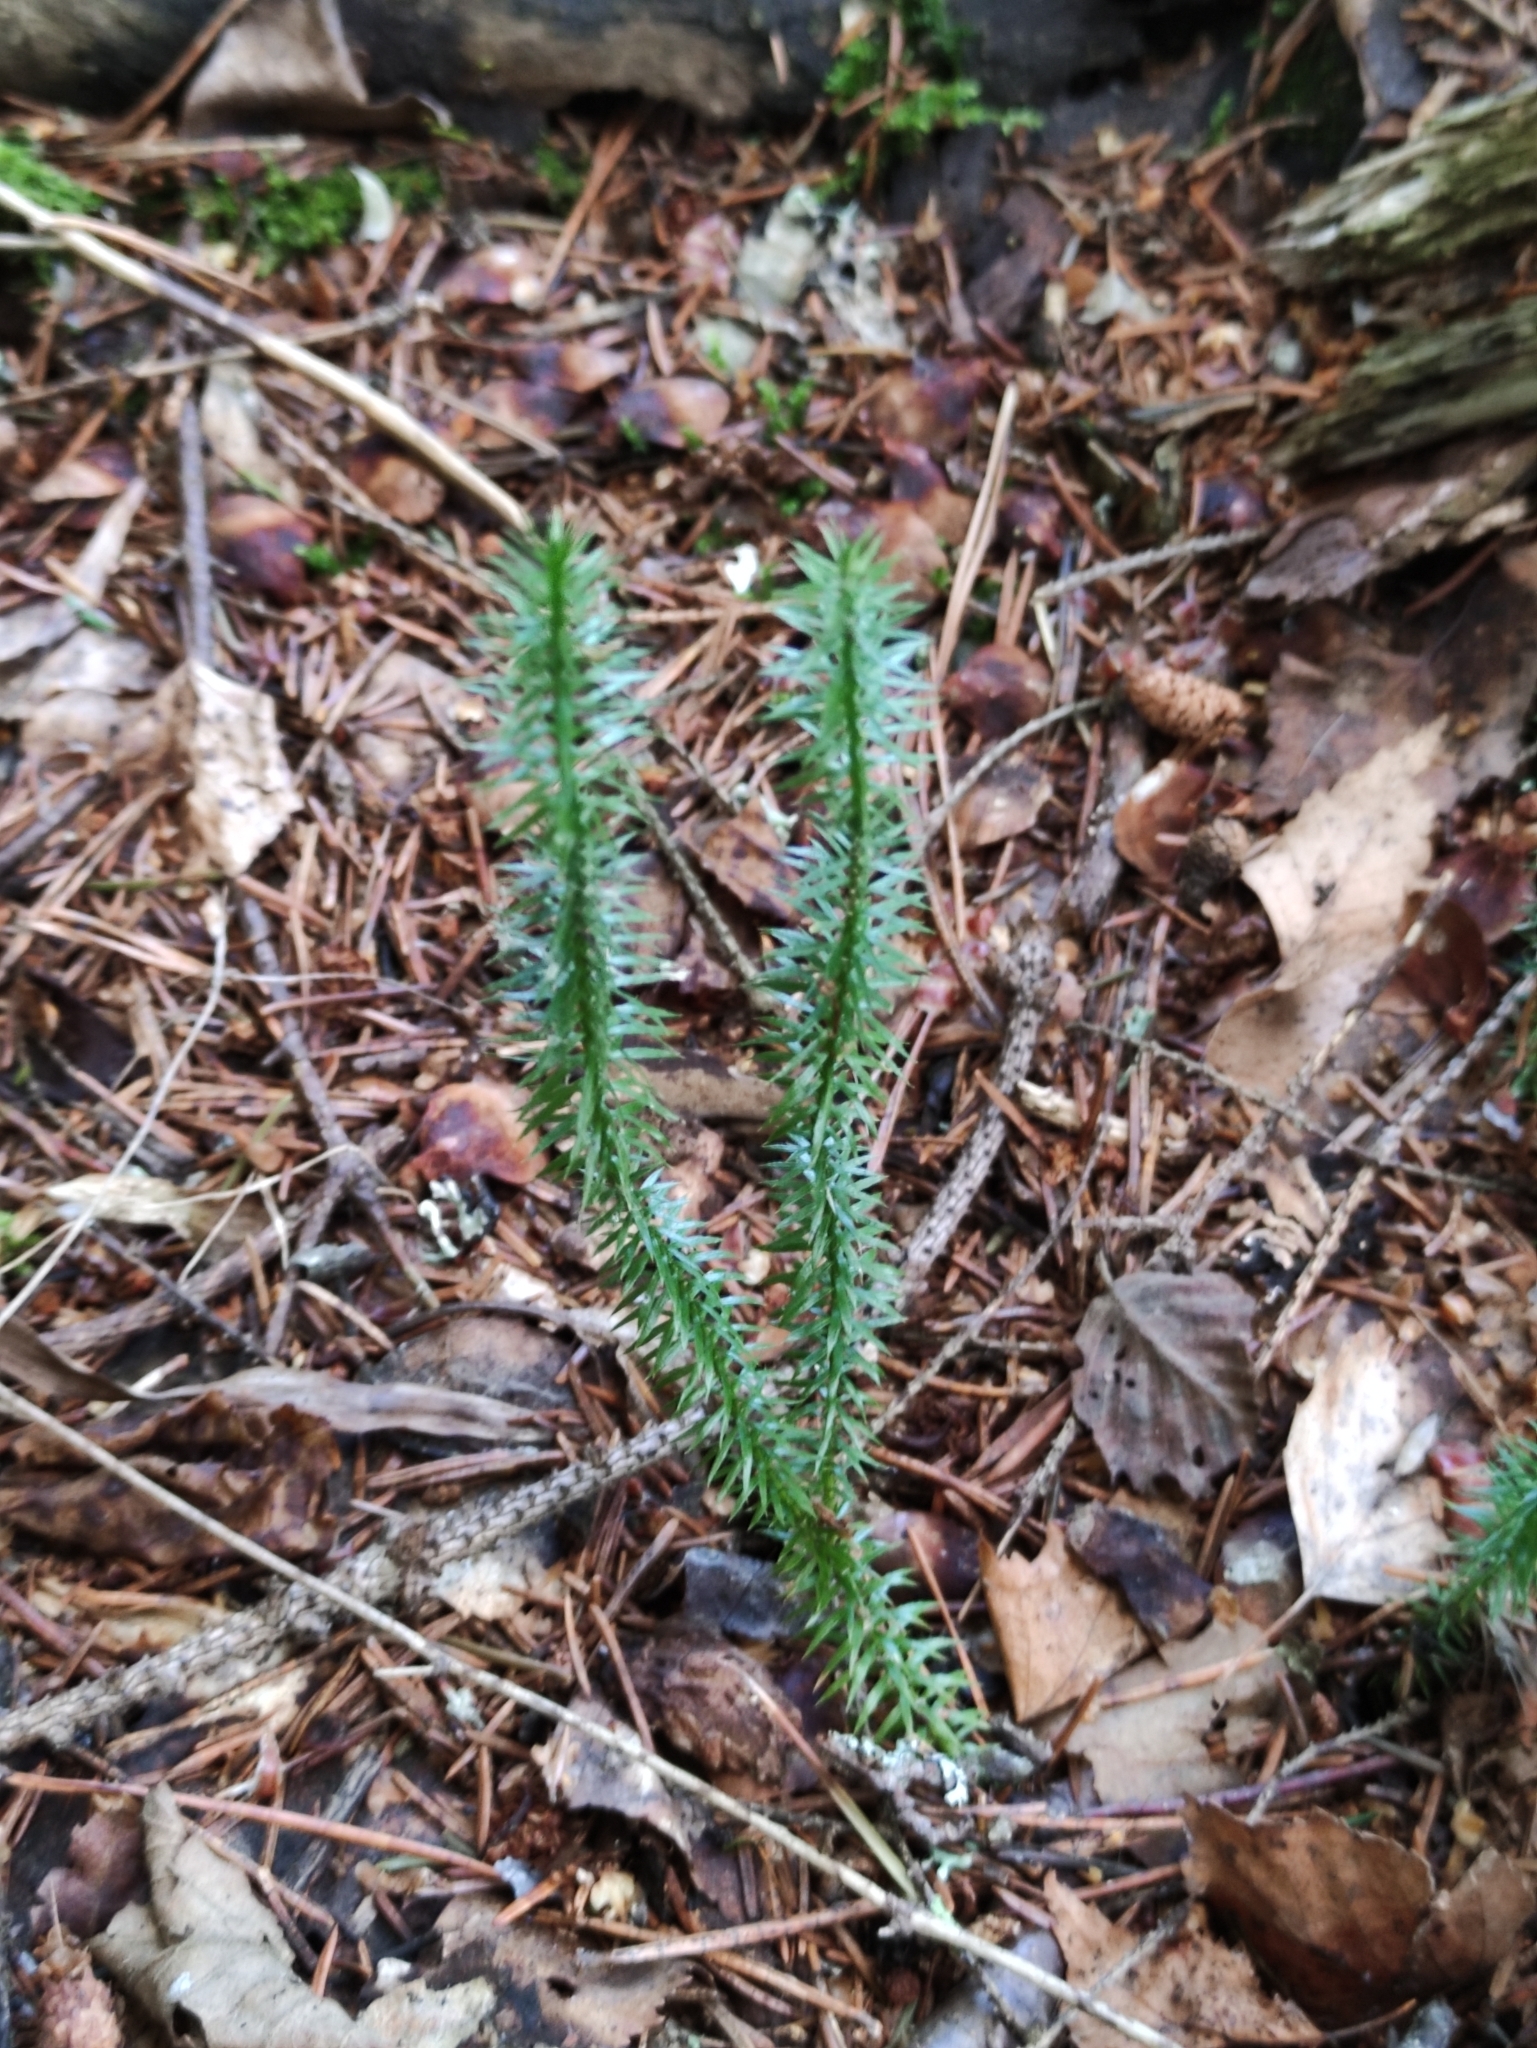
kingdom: Plantae
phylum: Tracheophyta
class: Lycopodiopsida
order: Lycopodiales
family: Lycopodiaceae
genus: Spinulum
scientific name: Spinulum annotinum
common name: Interrupted club-moss
